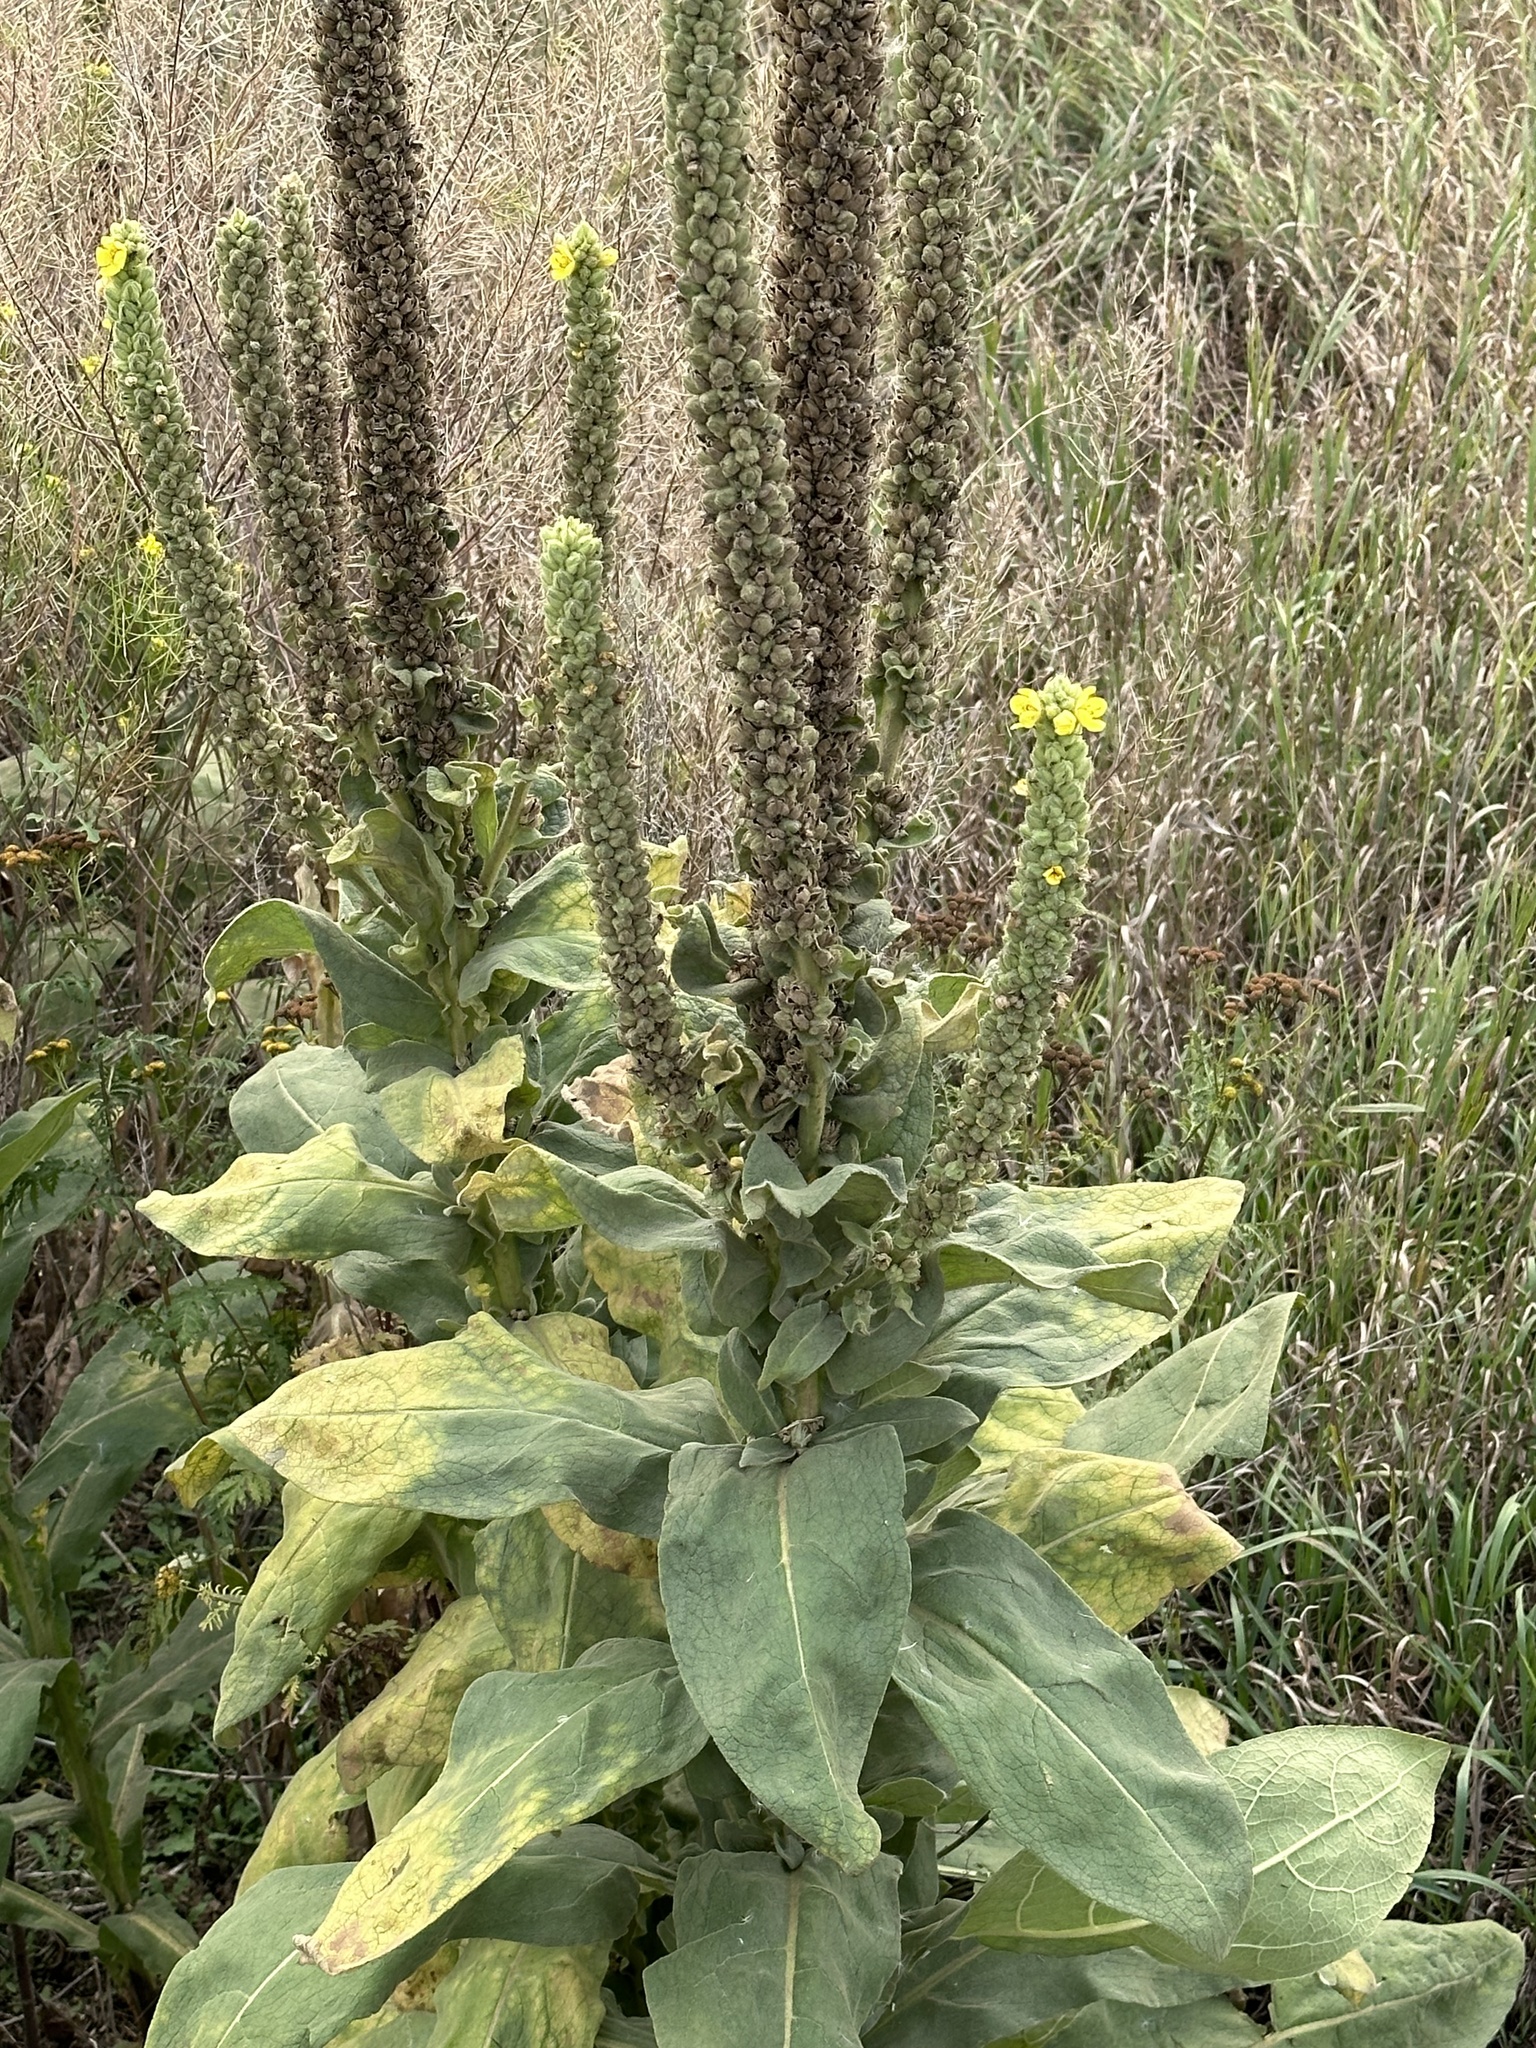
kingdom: Plantae
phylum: Tracheophyta
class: Magnoliopsida
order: Lamiales
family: Scrophulariaceae
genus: Verbascum
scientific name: Verbascum thapsus
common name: Common mullein
